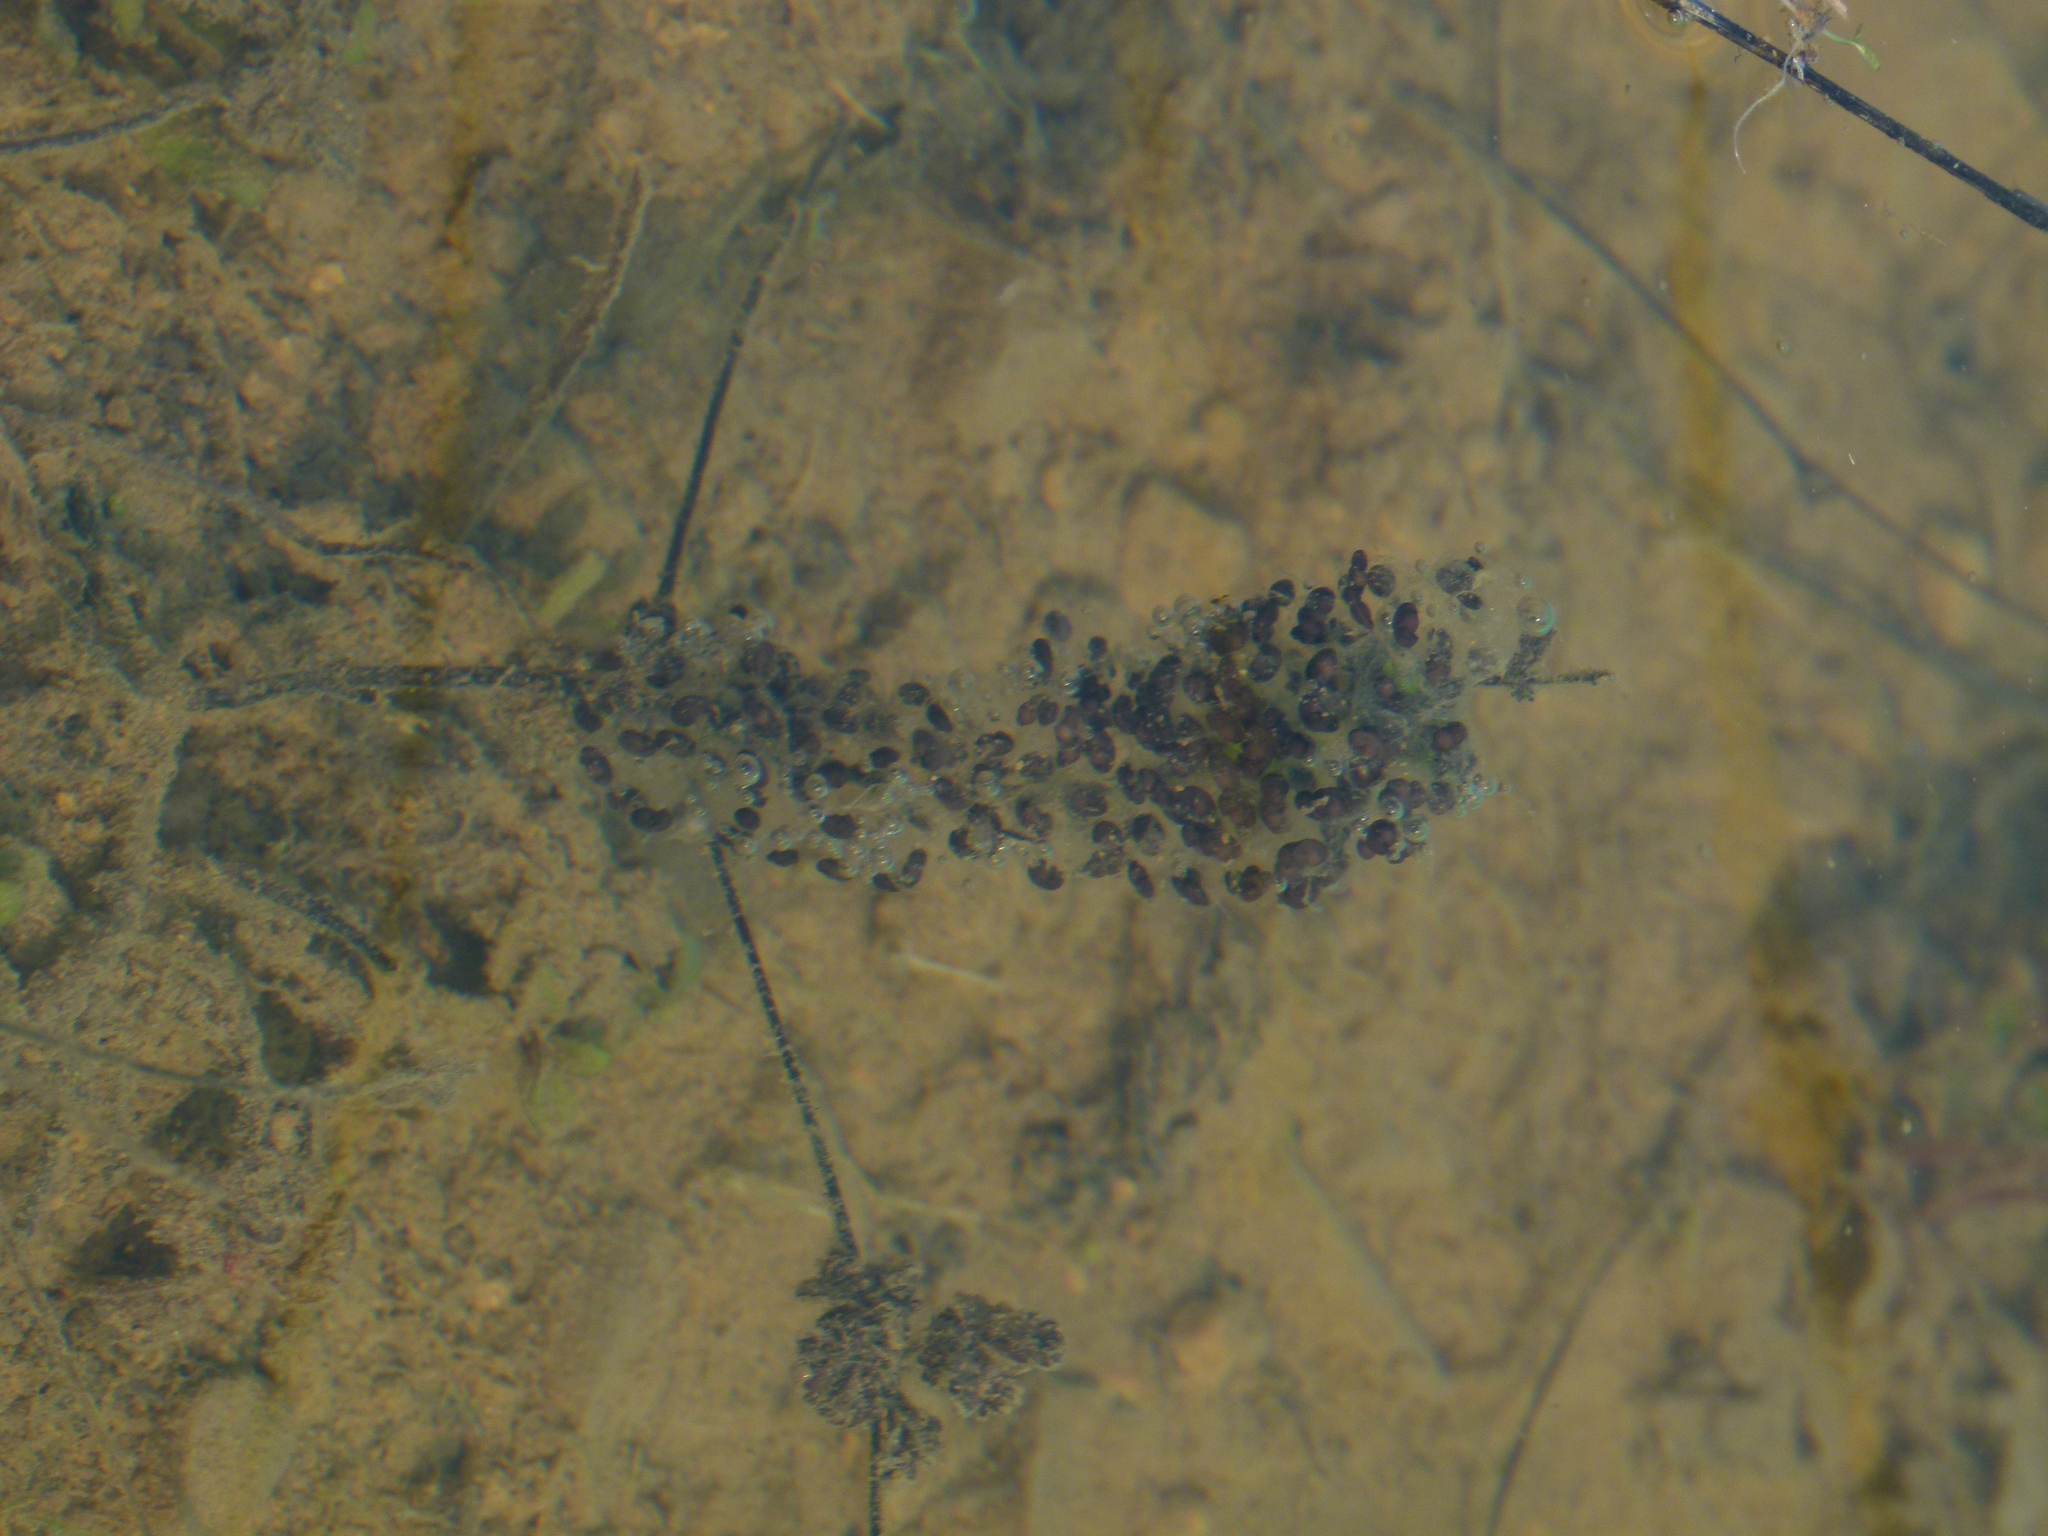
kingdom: Animalia
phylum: Chordata
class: Amphibia
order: Anura
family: Pelodytidae
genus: Pelodytes
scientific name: Pelodytes punctatus
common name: Parsley frog
